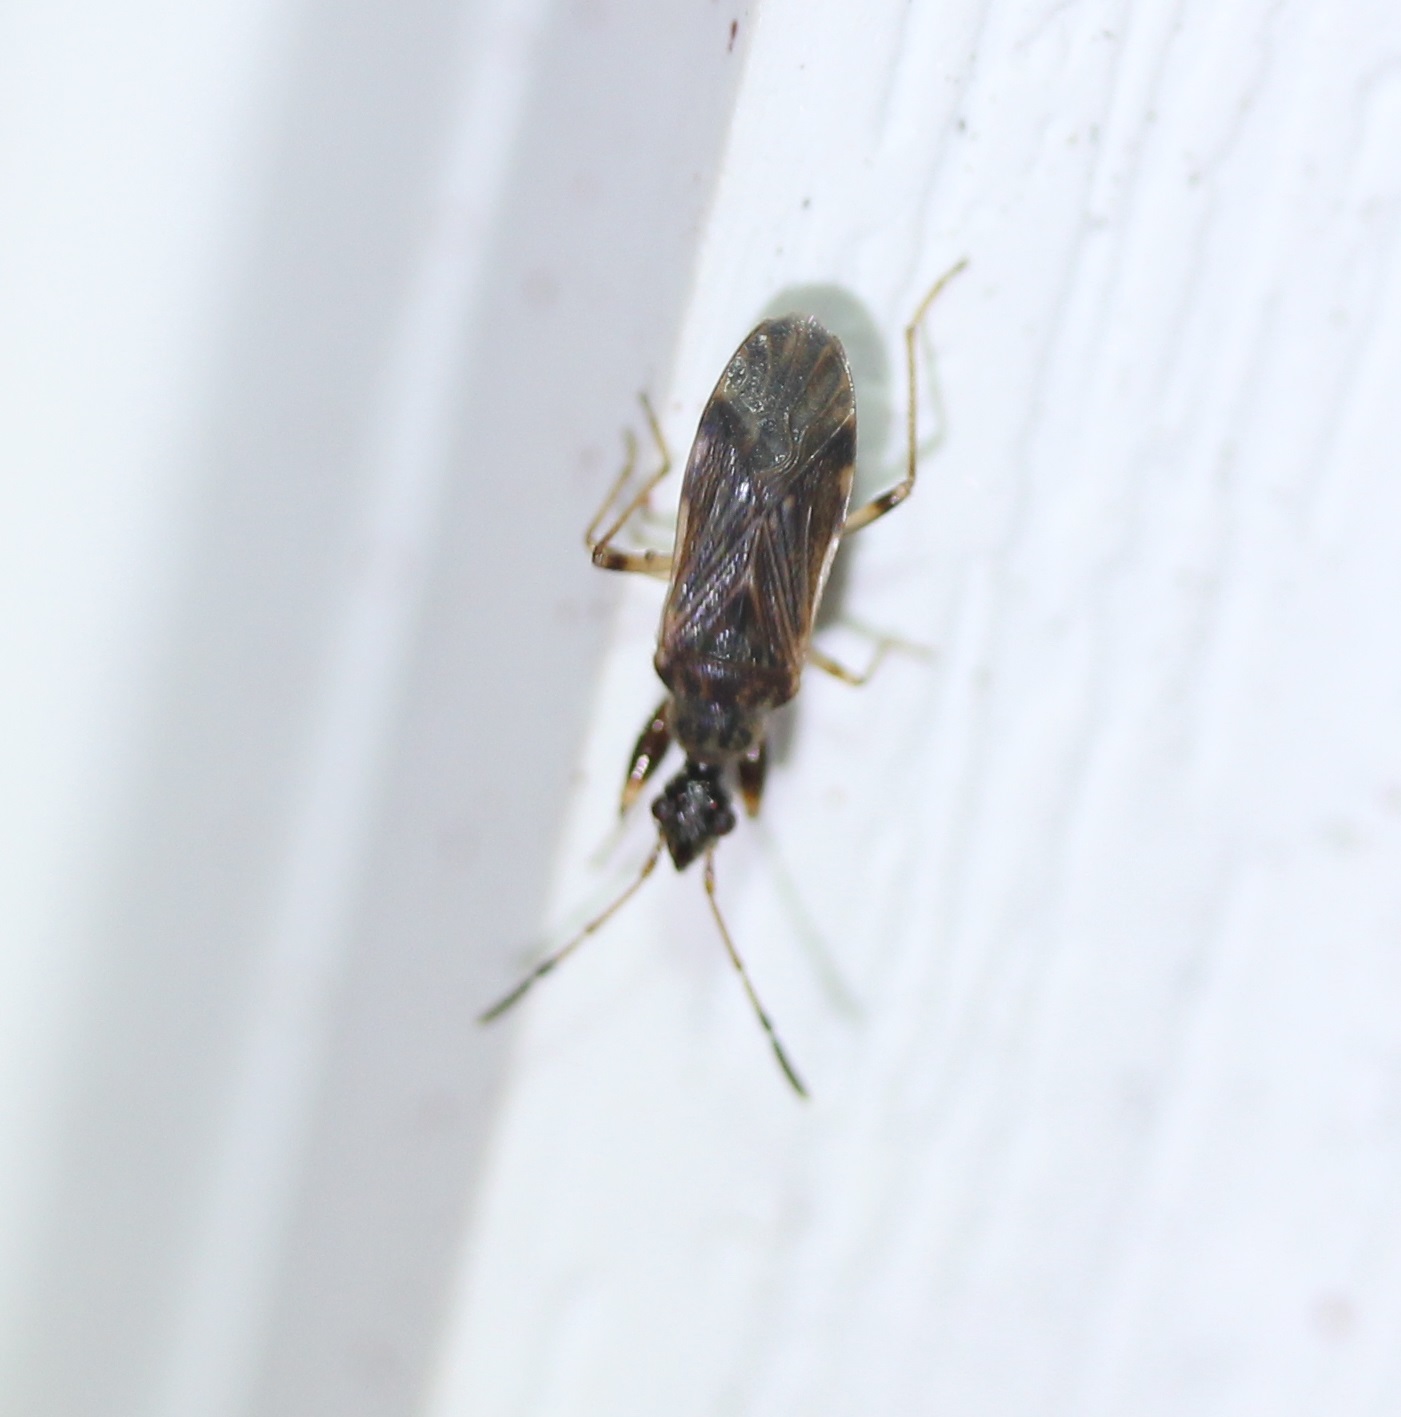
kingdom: Animalia
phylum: Arthropoda
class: Insecta
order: Hemiptera
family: Rhyparochromidae
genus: Heraeus
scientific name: Heraeus plebejus
